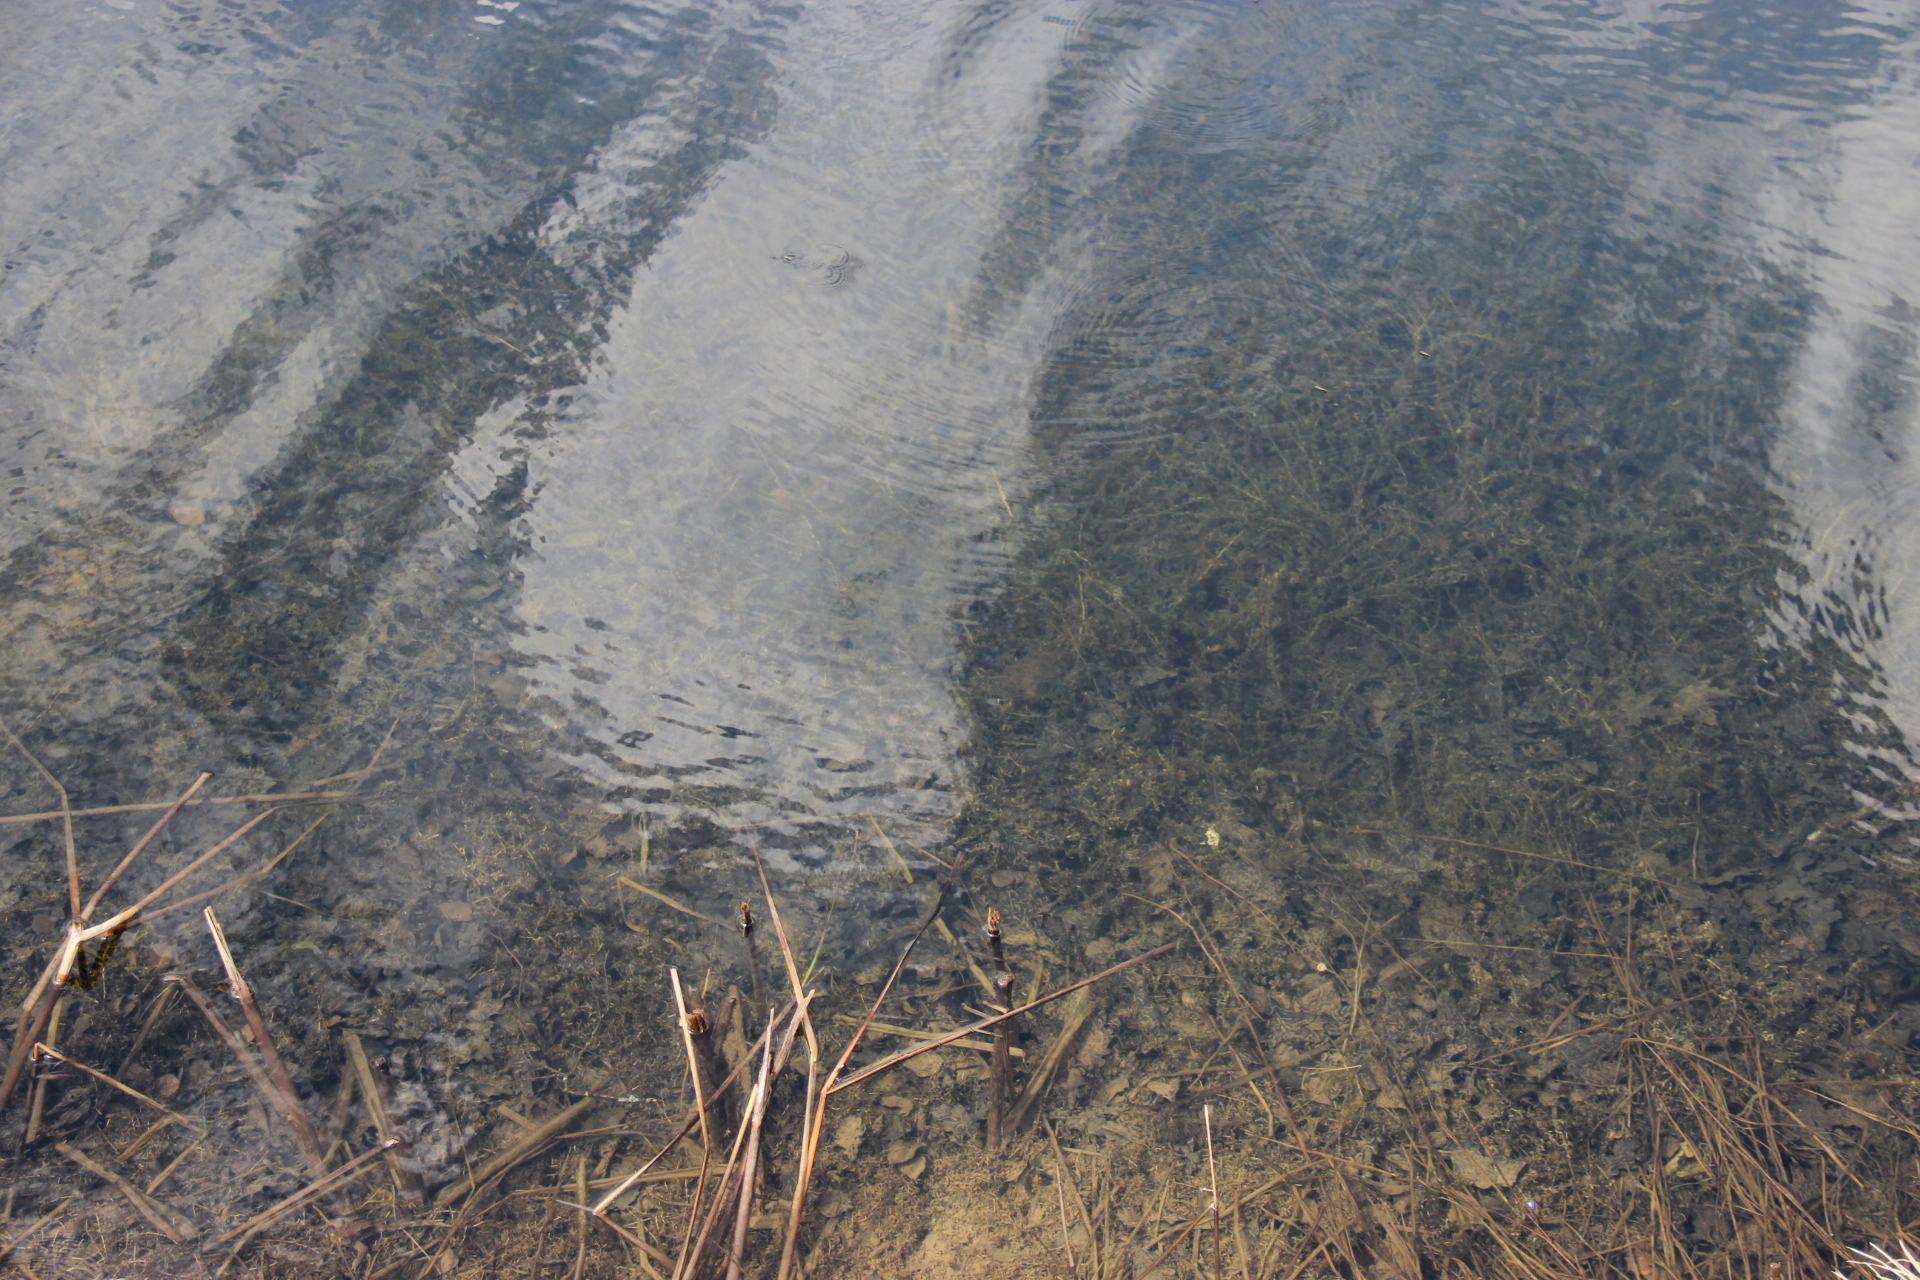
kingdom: Plantae
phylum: Tracheophyta
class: Liliopsida
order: Alismatales
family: Hydrocharitaceae
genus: Elodea
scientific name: Elodea canadensis
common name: Canadian waterweed
